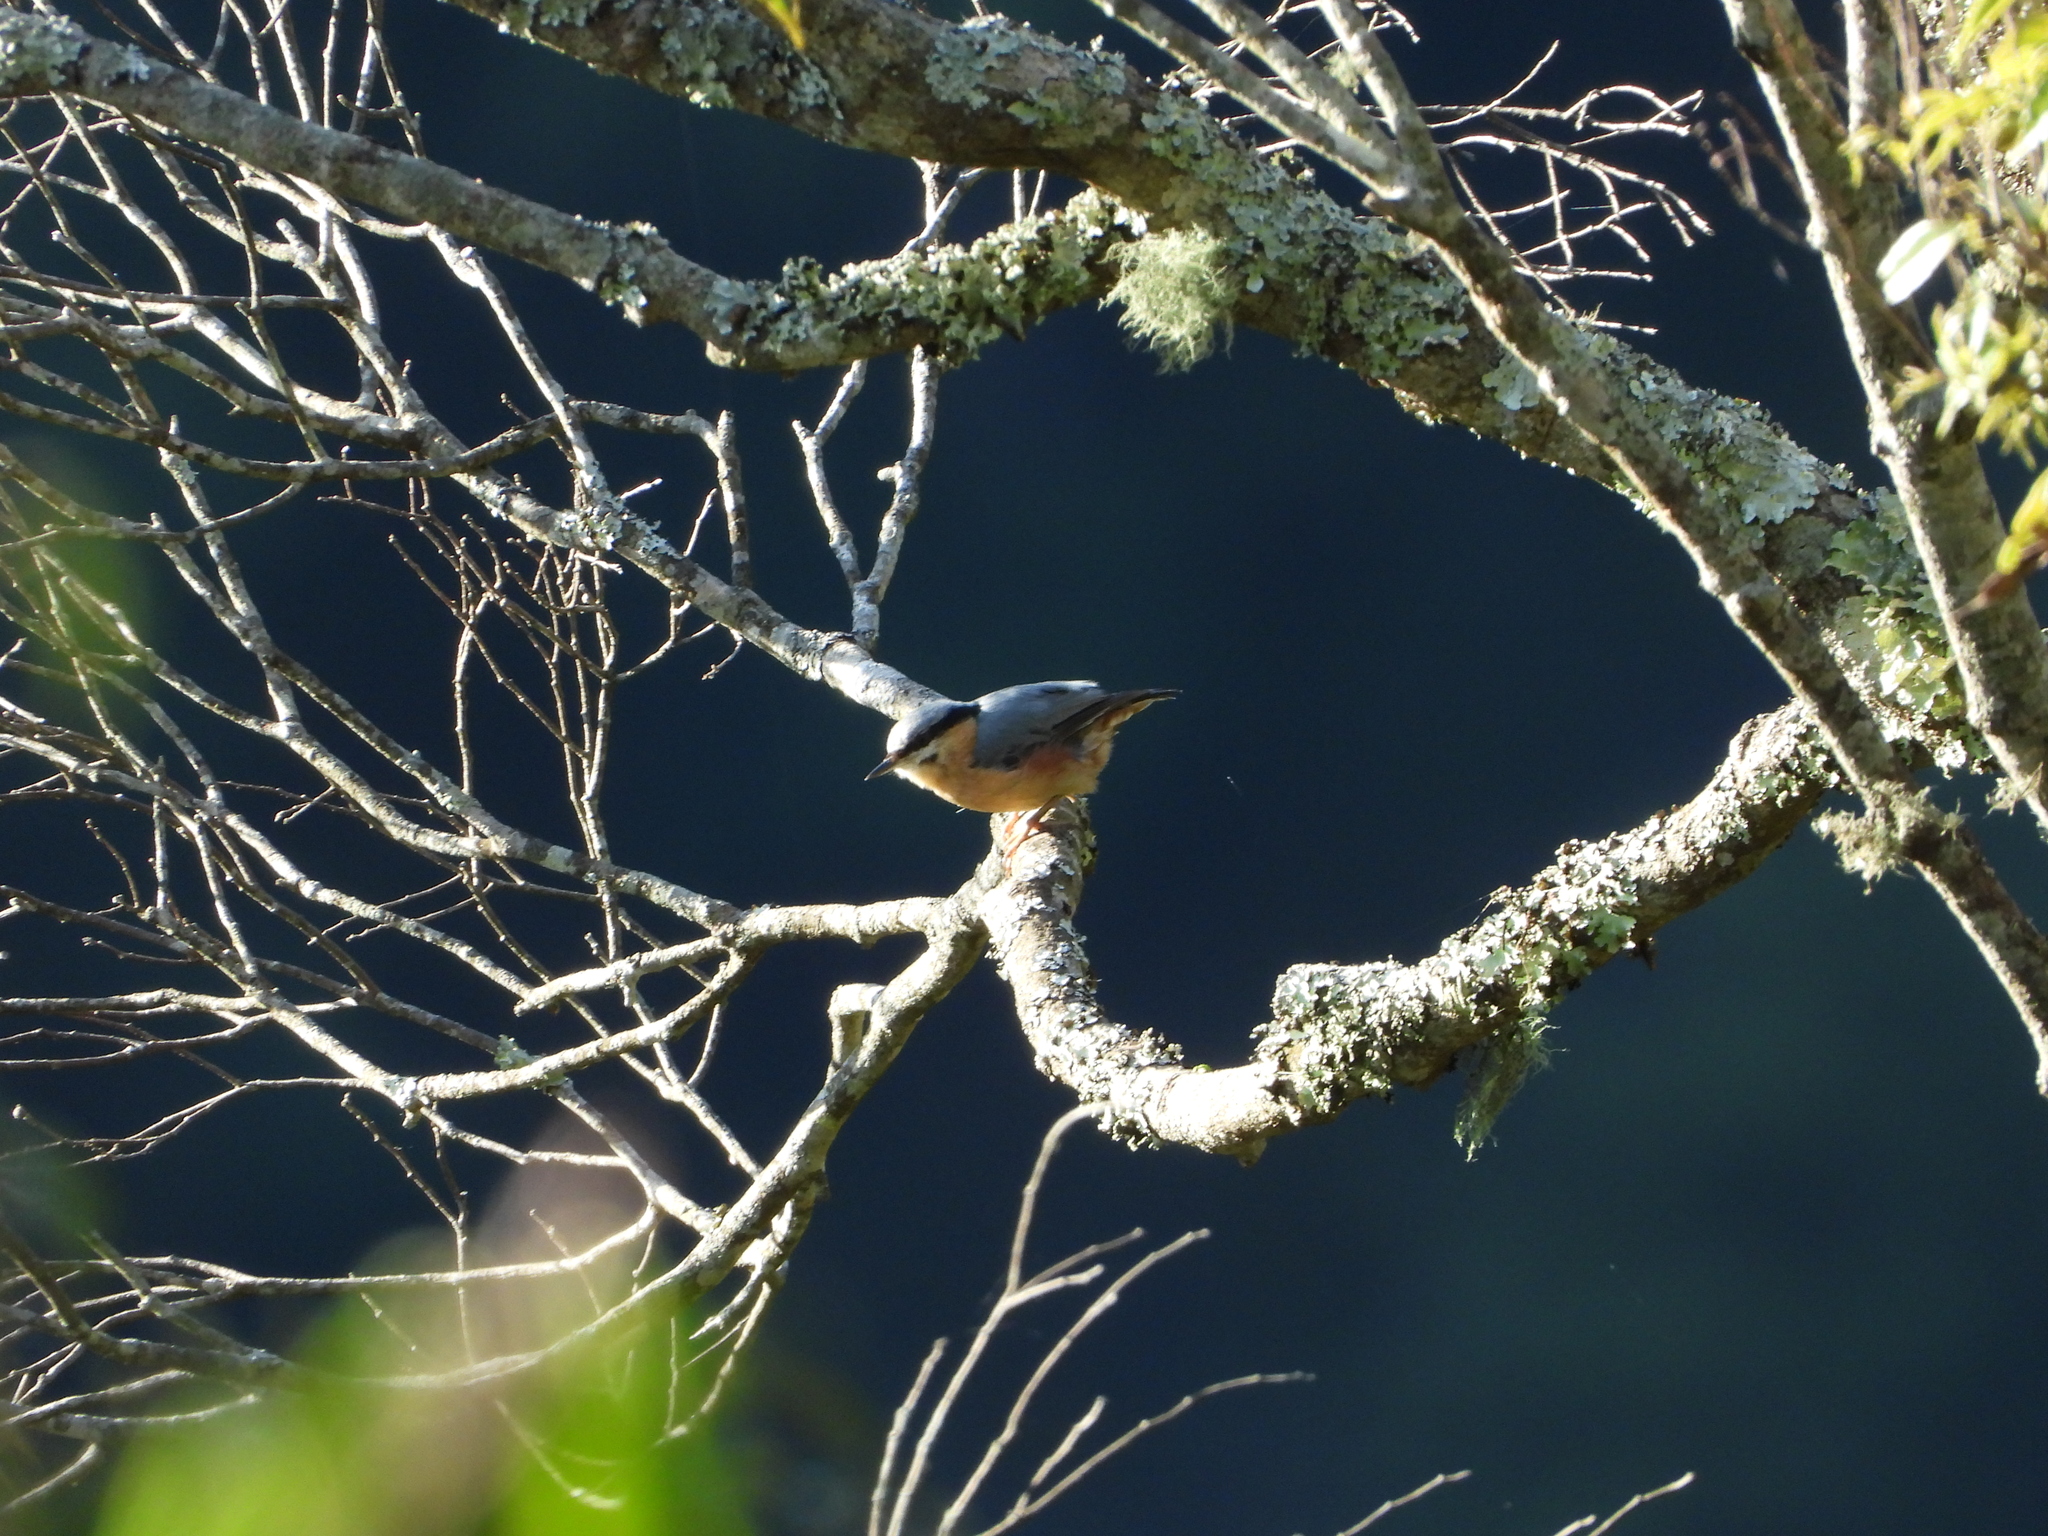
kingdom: Animalia
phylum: Chordata
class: Aves
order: Passeriformes
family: Sittidae
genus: Sitta
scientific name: Sitta europaea
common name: Eurasian nuthatch
